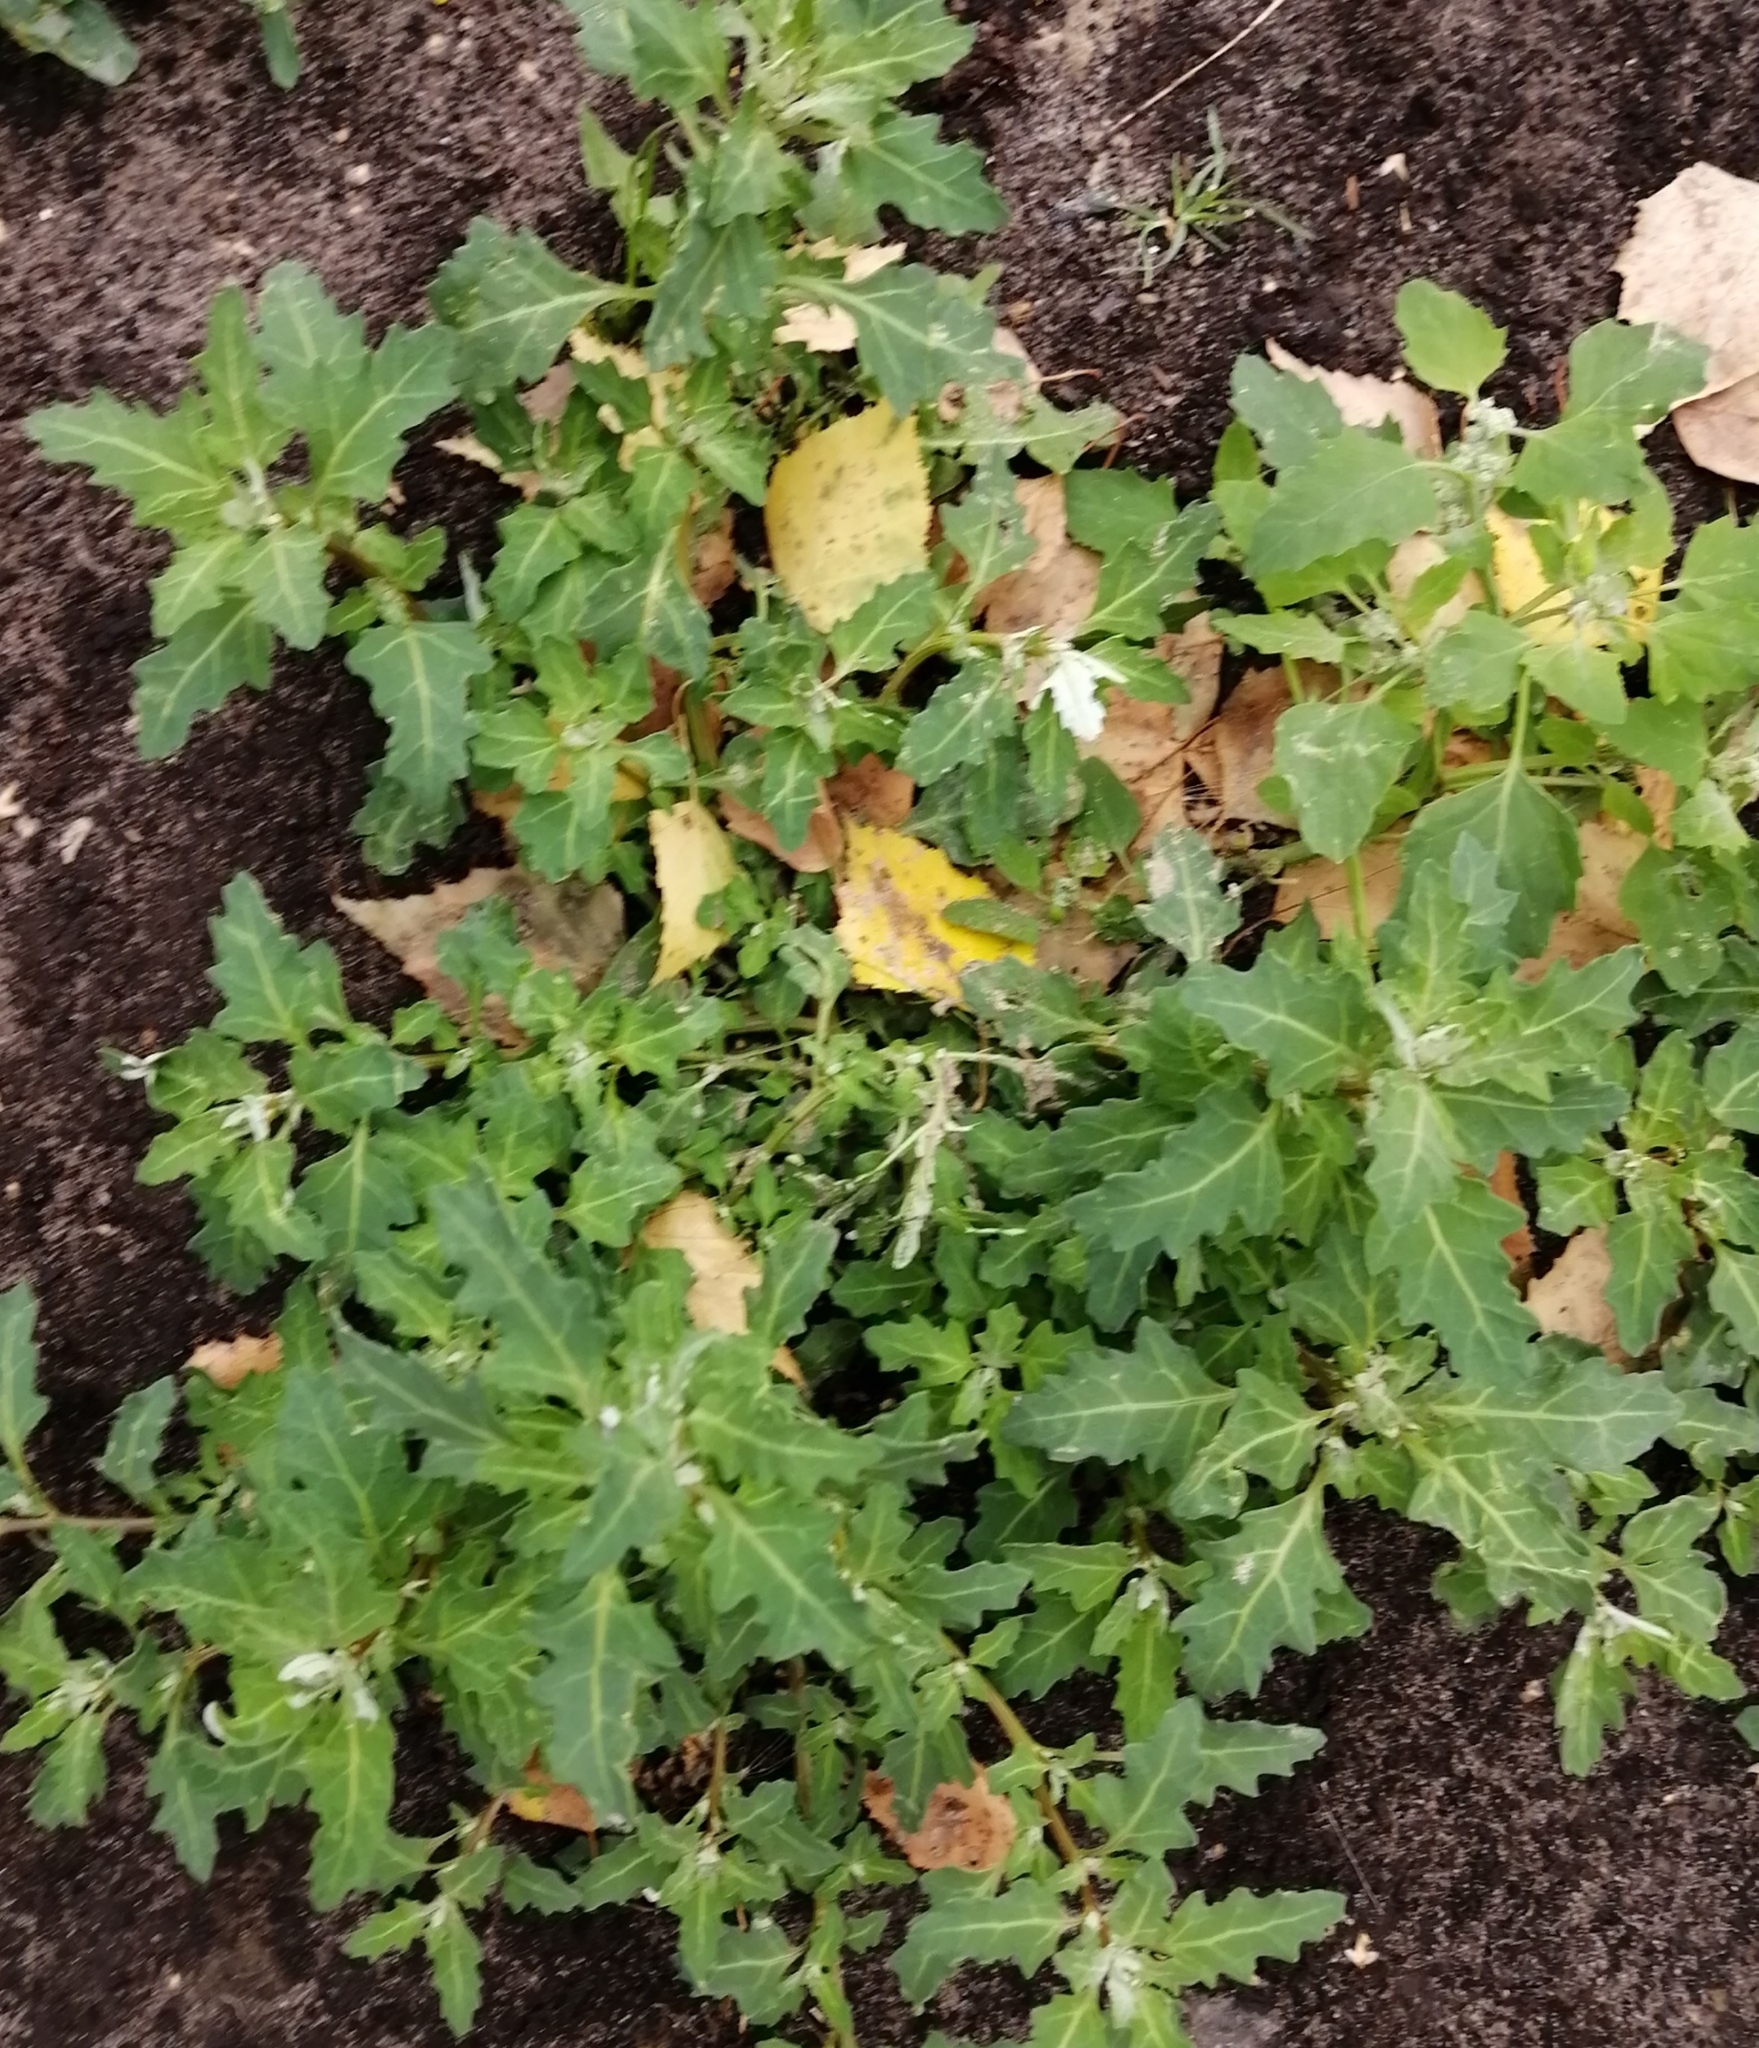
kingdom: Plantae
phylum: Tracheophyta
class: Magnoliopsida
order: Caryophyllales
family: Amaranthaceae
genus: Oxybasis
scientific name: Oxybasis glauca
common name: Glaucous goosefoot
